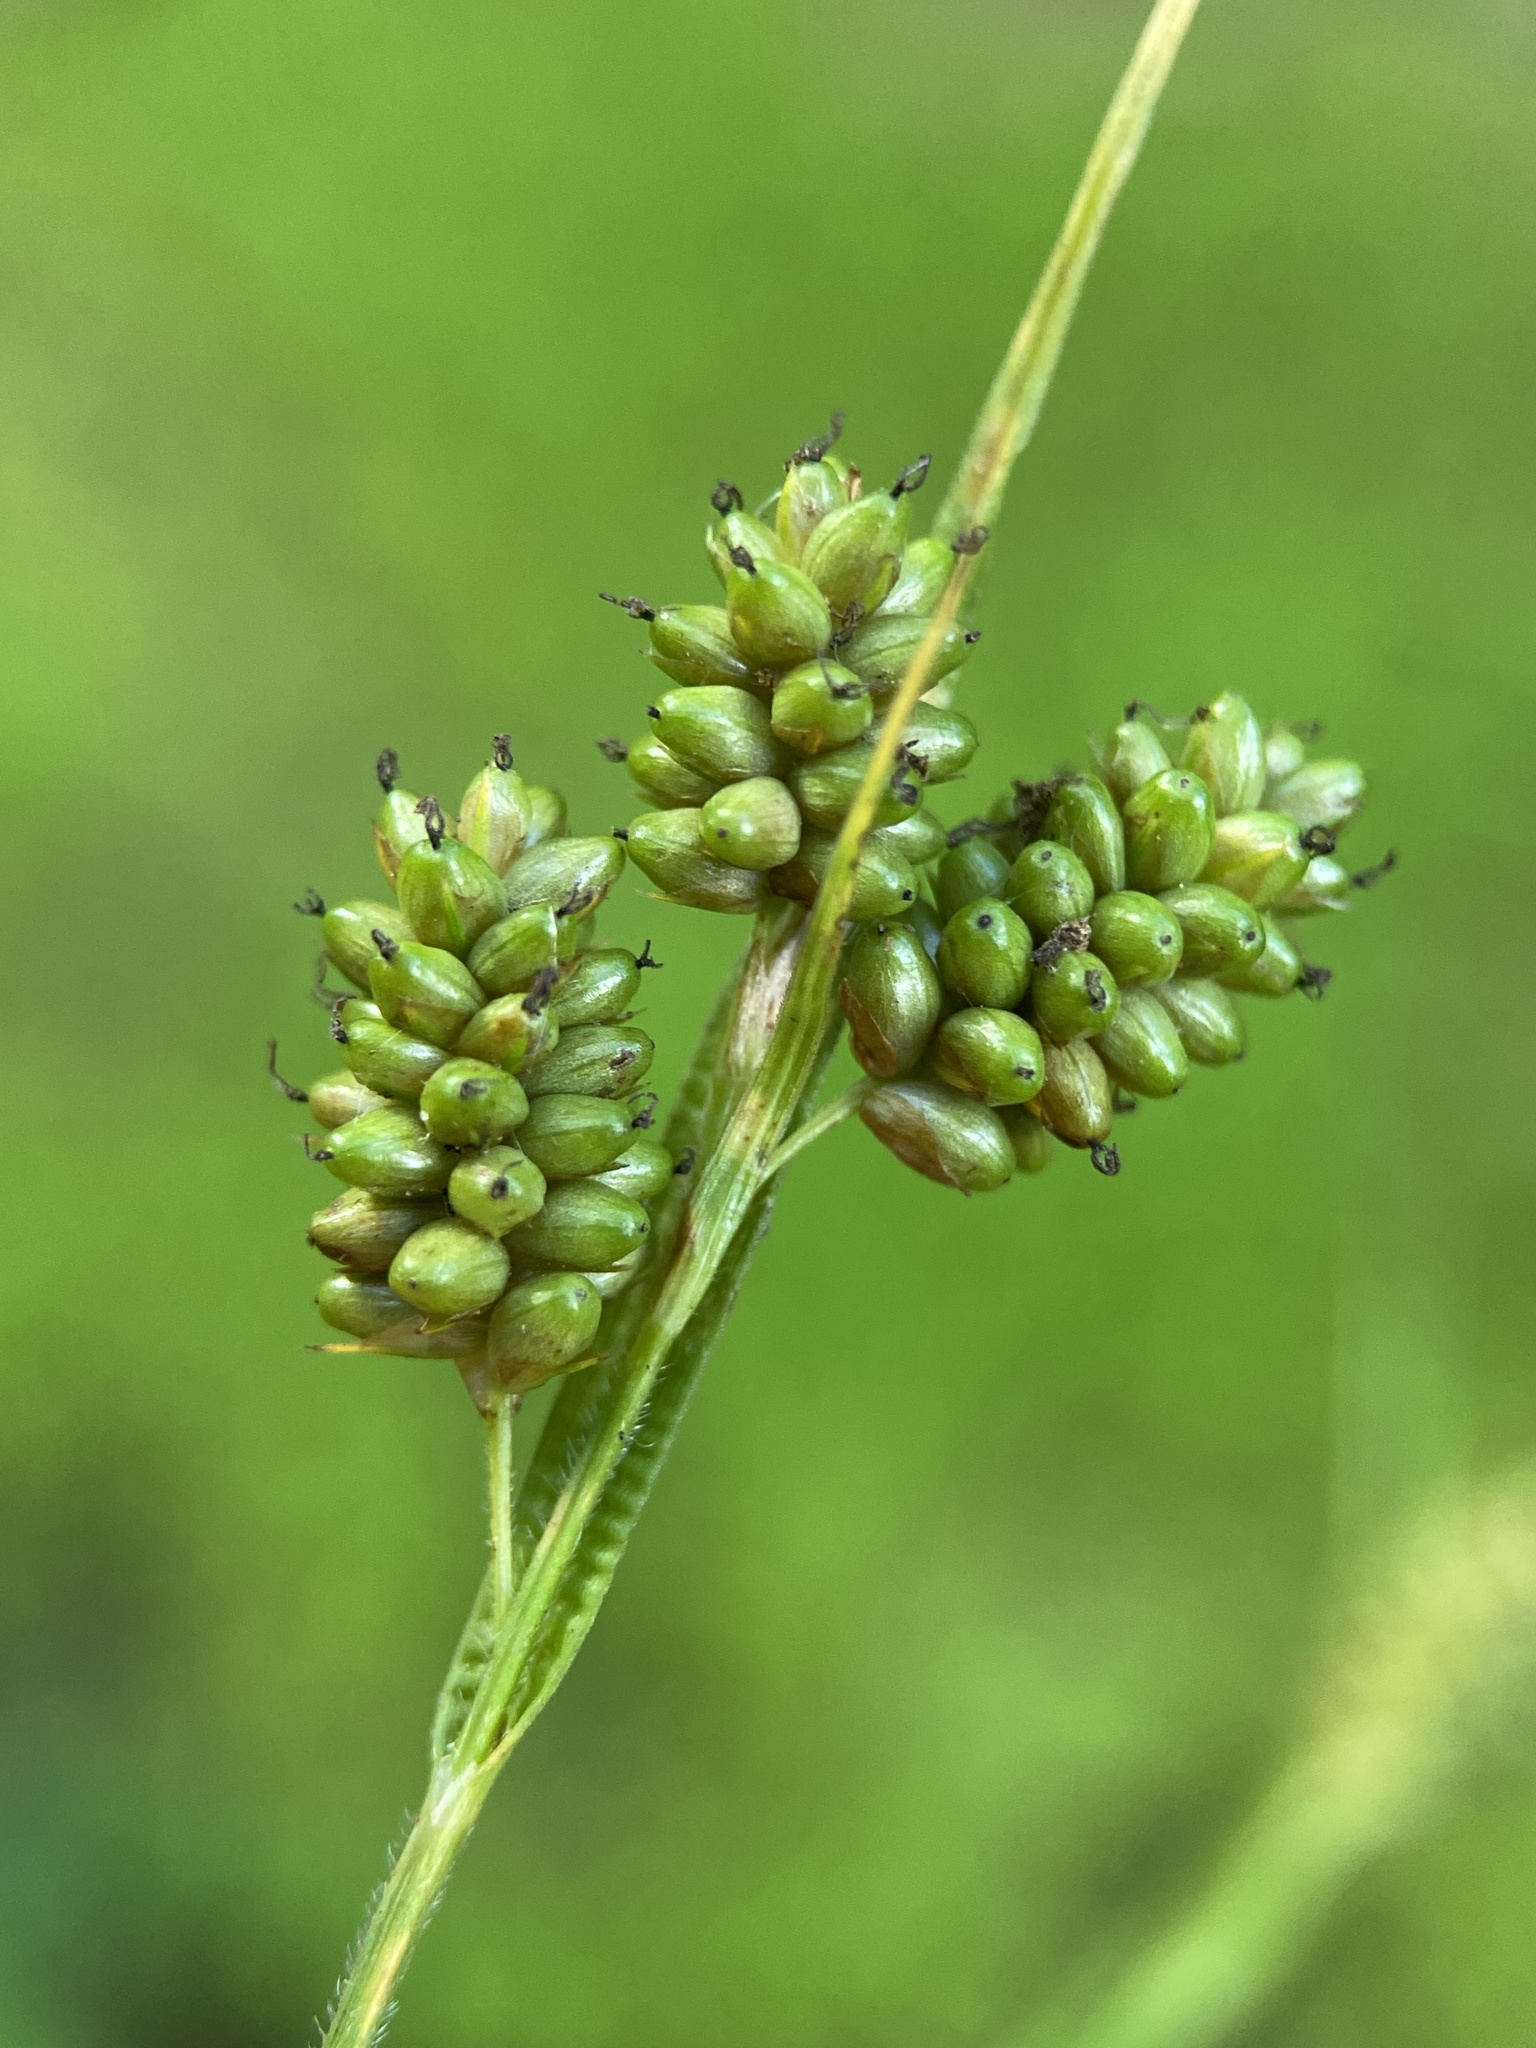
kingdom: Plantae
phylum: Tracheophyta
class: Liliopsida
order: Poales
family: Cyperaceae
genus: Carex
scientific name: Carex pallescens
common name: Pale sedge
